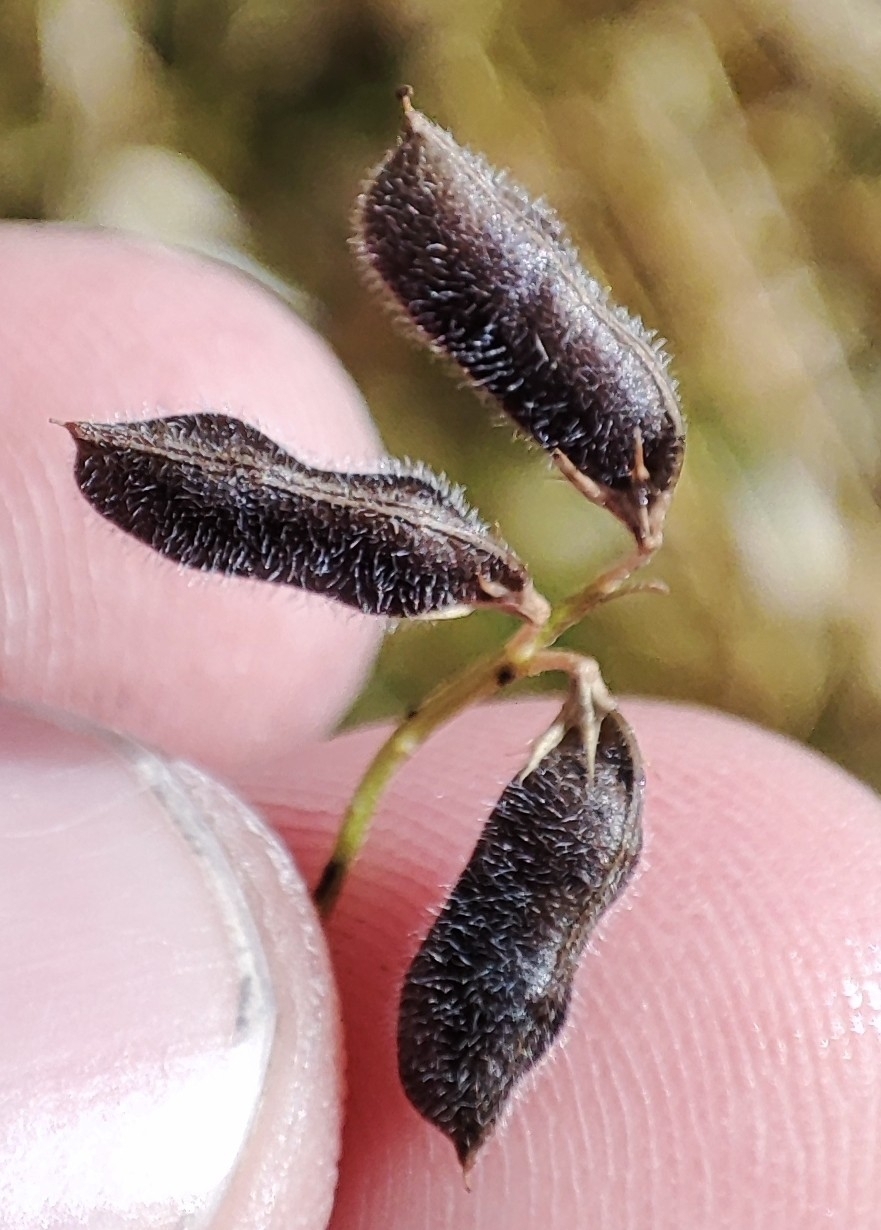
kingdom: Plantae
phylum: Tracheophyta
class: Magnoliopsida
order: Fabales
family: Fabaceae
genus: Vicia
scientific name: Vicia hirsuta
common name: Tiny vetch
